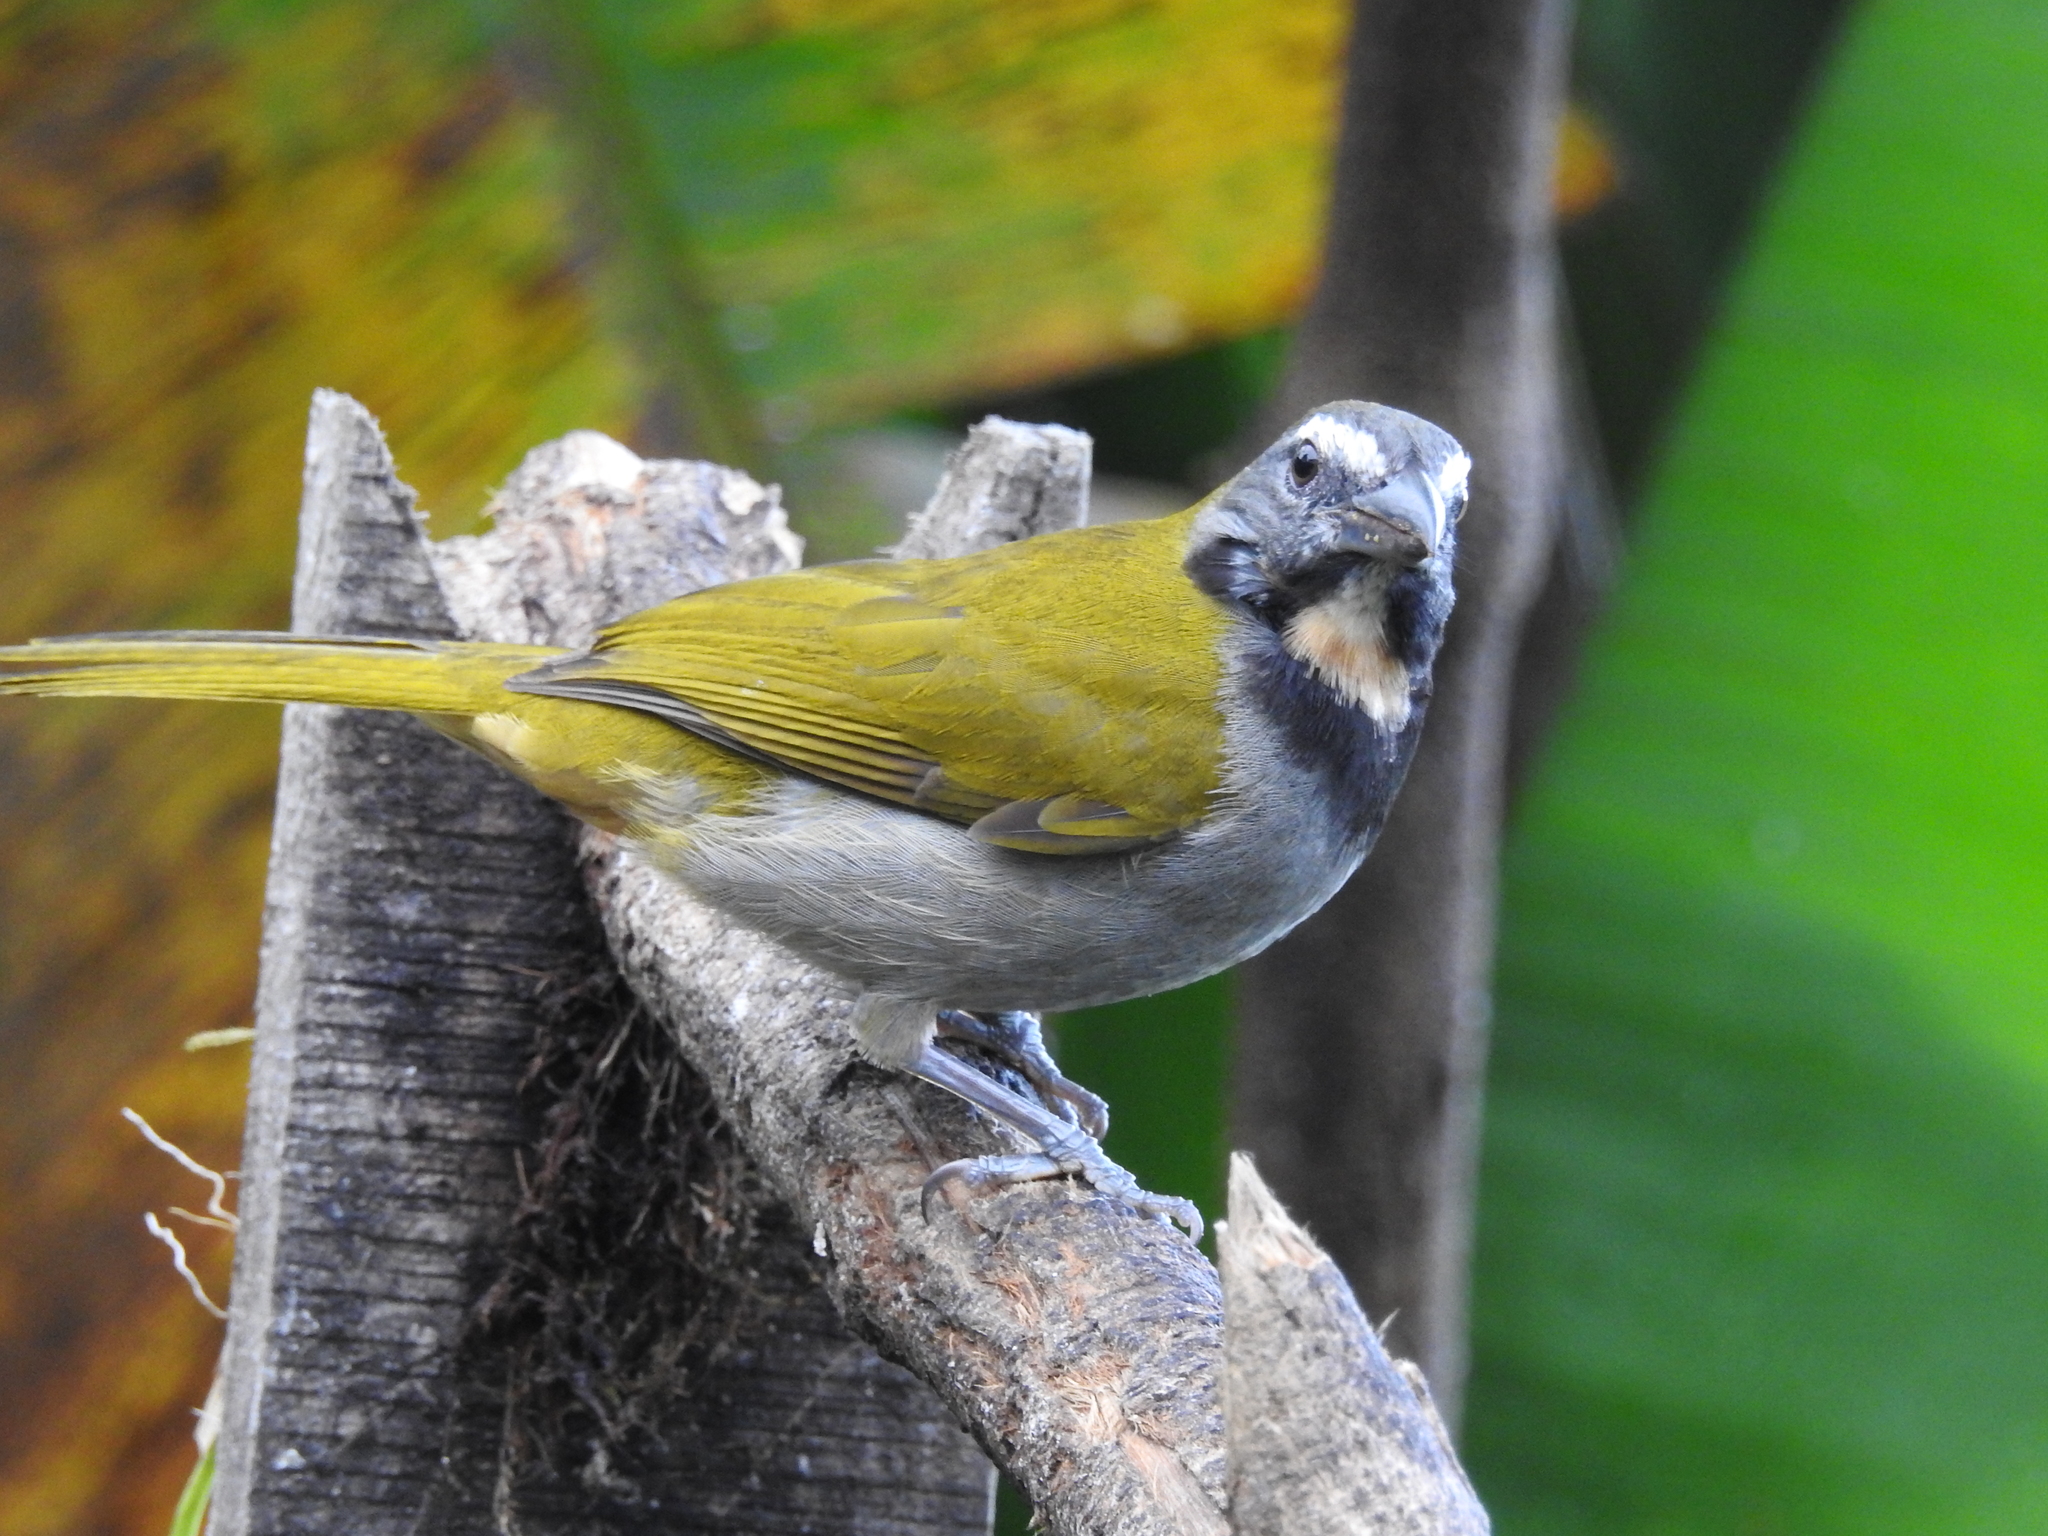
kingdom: Animalia
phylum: Chordata
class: Aves
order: Passeriformes
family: Thraupidae
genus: Saltator
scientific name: Saltator maximus
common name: Buff-throated saltator
